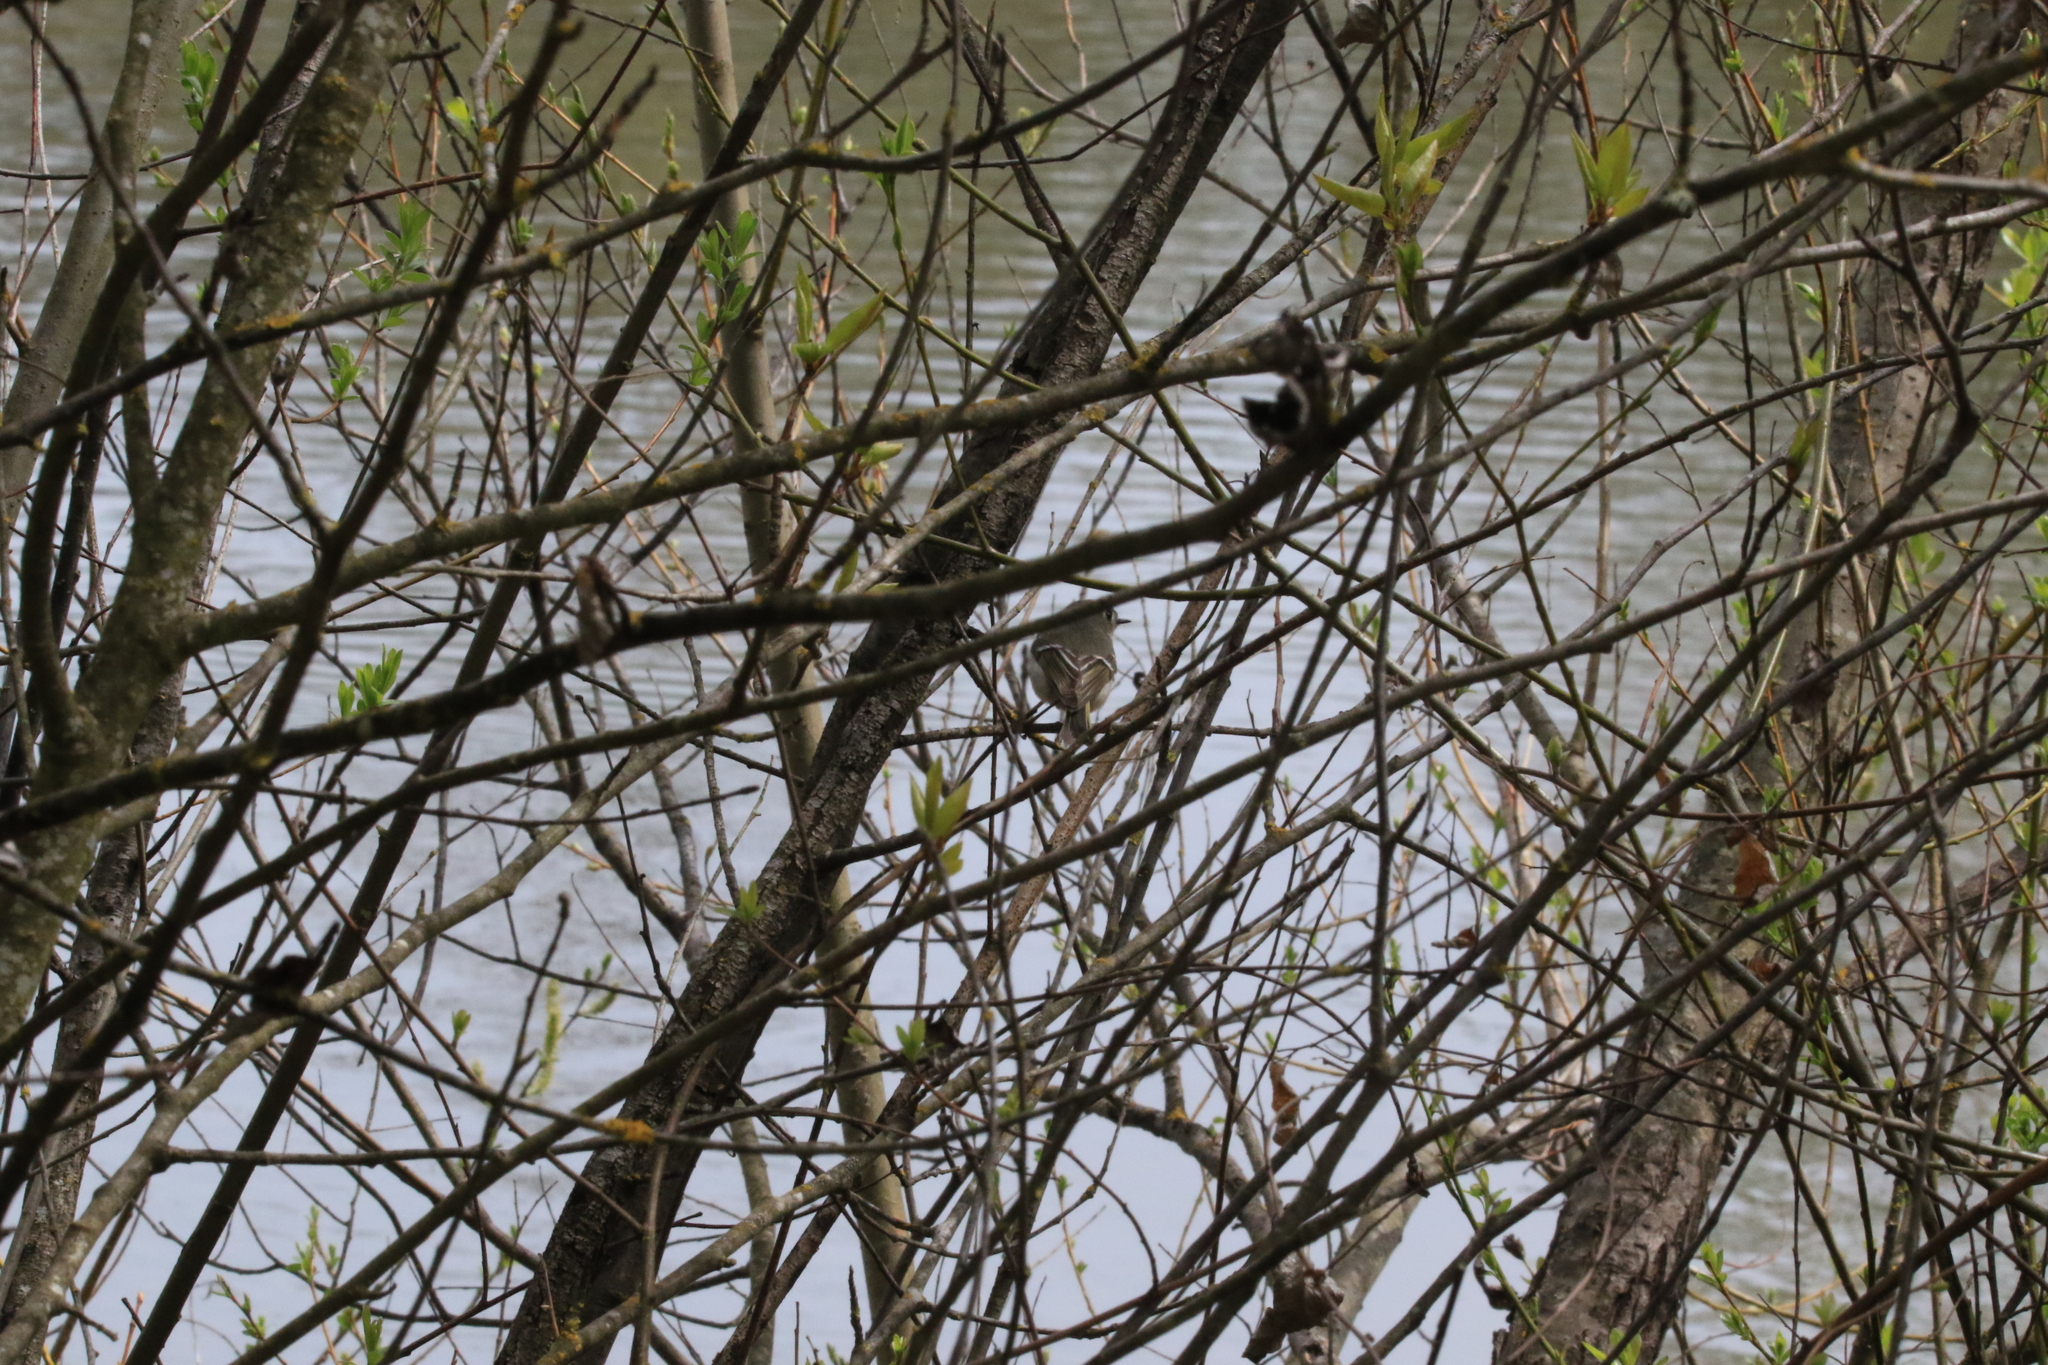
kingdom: Animalia
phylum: Chordata
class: Aves
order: Passeriformes
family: Regulidae
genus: Regulus
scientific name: Regulus calendula
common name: Ruby-crowned kinglet
